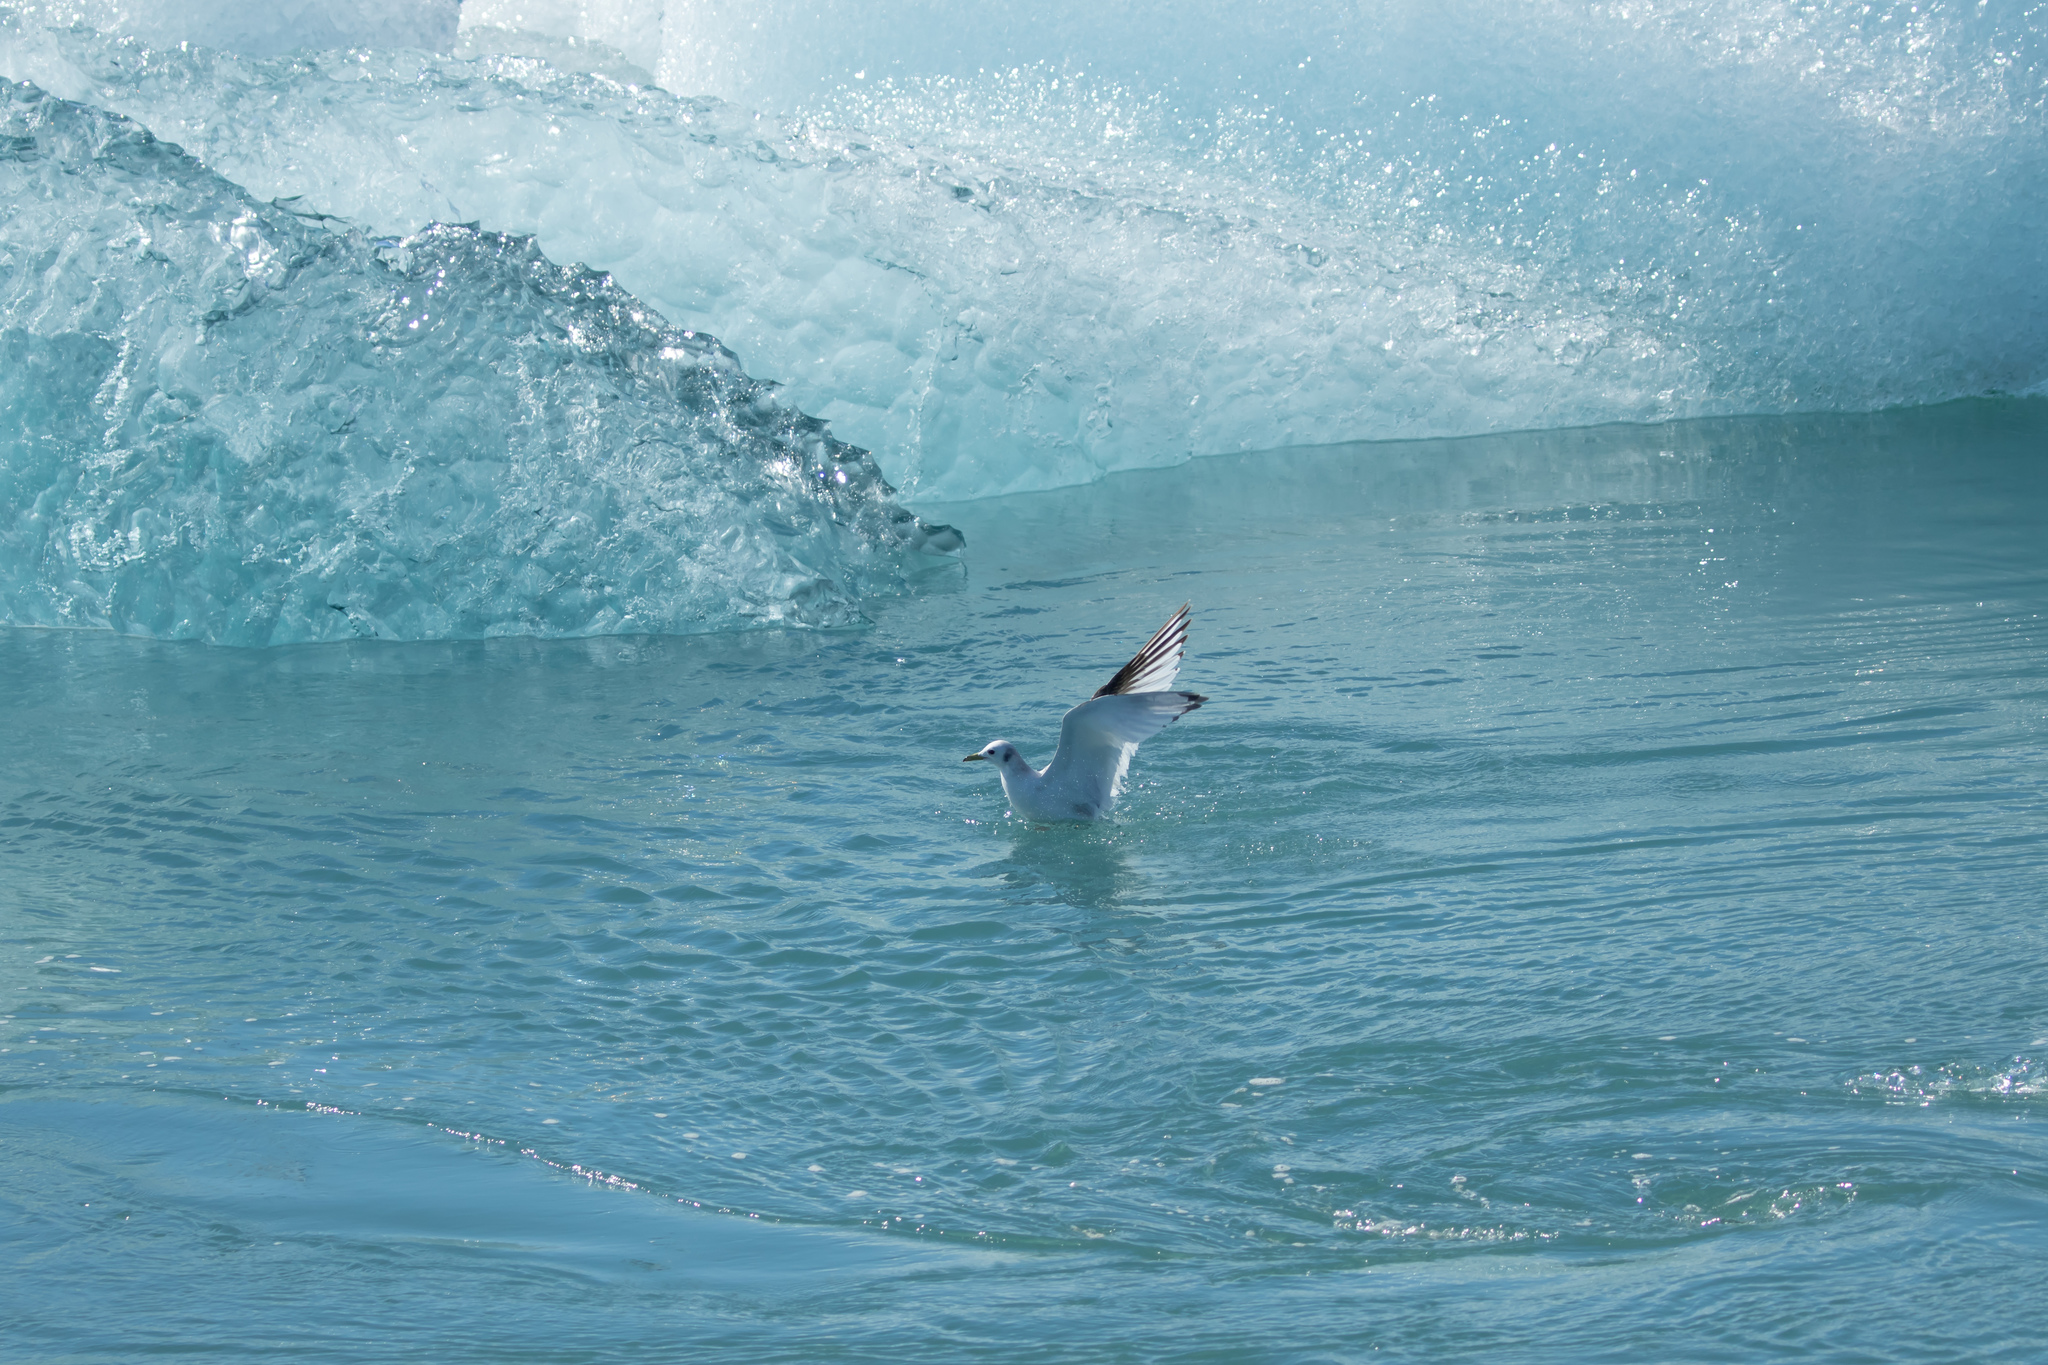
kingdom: Animalia
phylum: Chordata
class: Aves
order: Charadriiformes
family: Laridae
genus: Chroicocephalus
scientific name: Chroicocephalus ridibundus
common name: Black-headed gull
